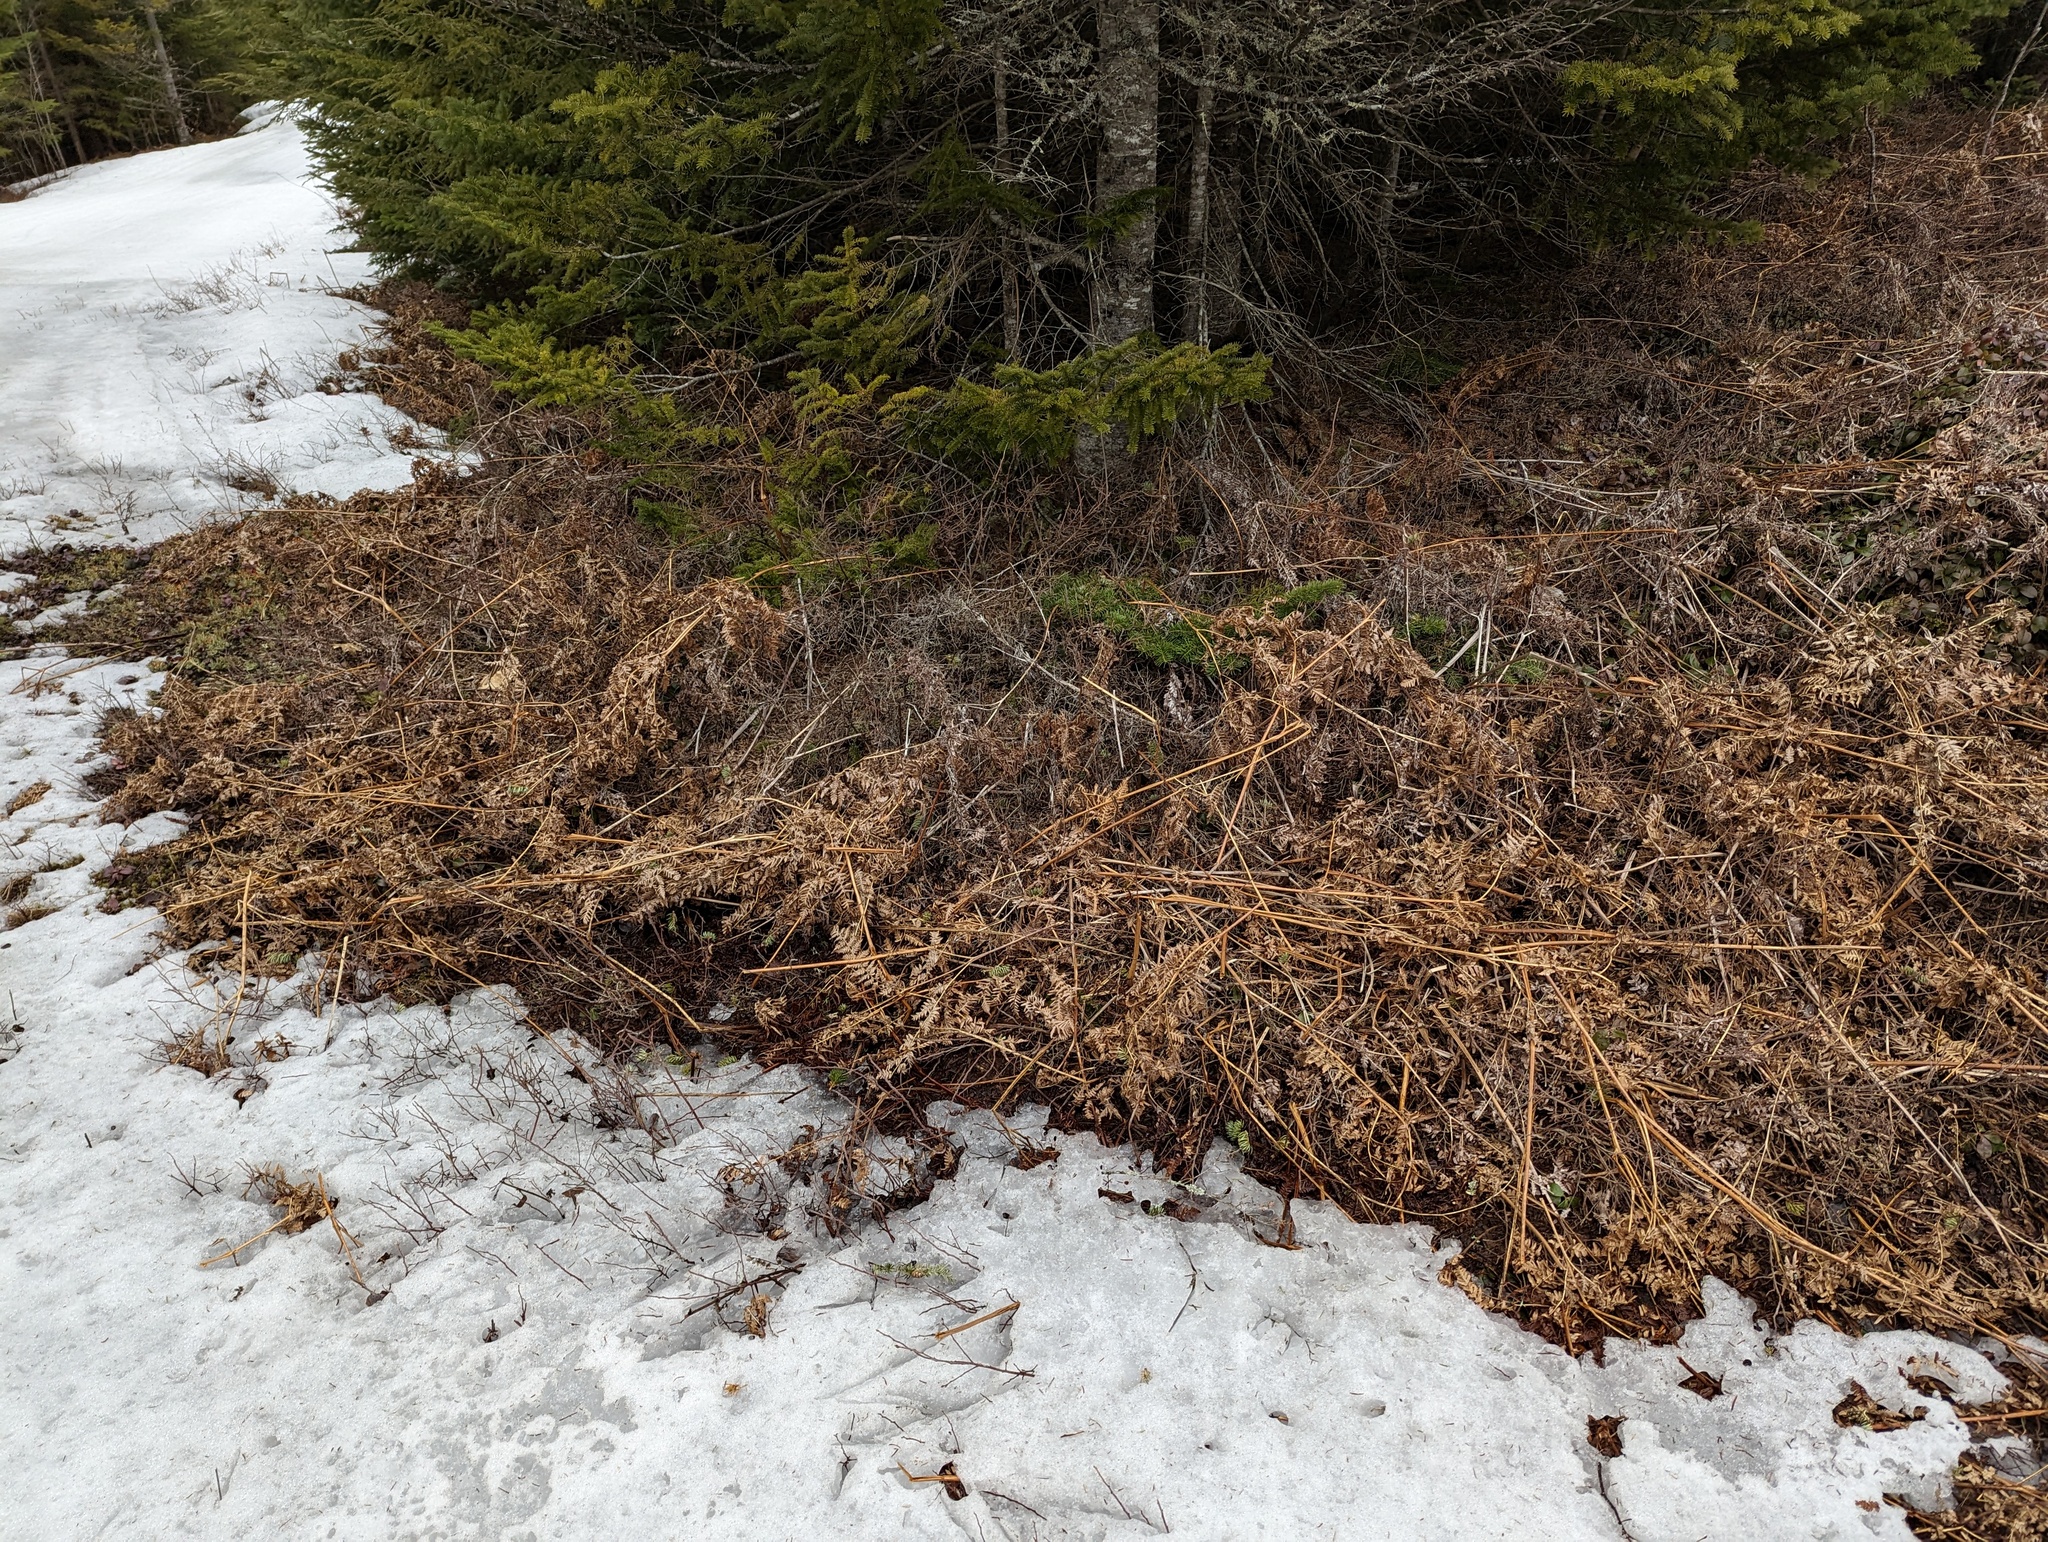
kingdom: Plantae
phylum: Tracheophyta
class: Polypodiopsida
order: Polypodiales
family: Dennstaedtiaceae
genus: Pteridium
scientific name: Pteridium aquilinum
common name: Bracken
